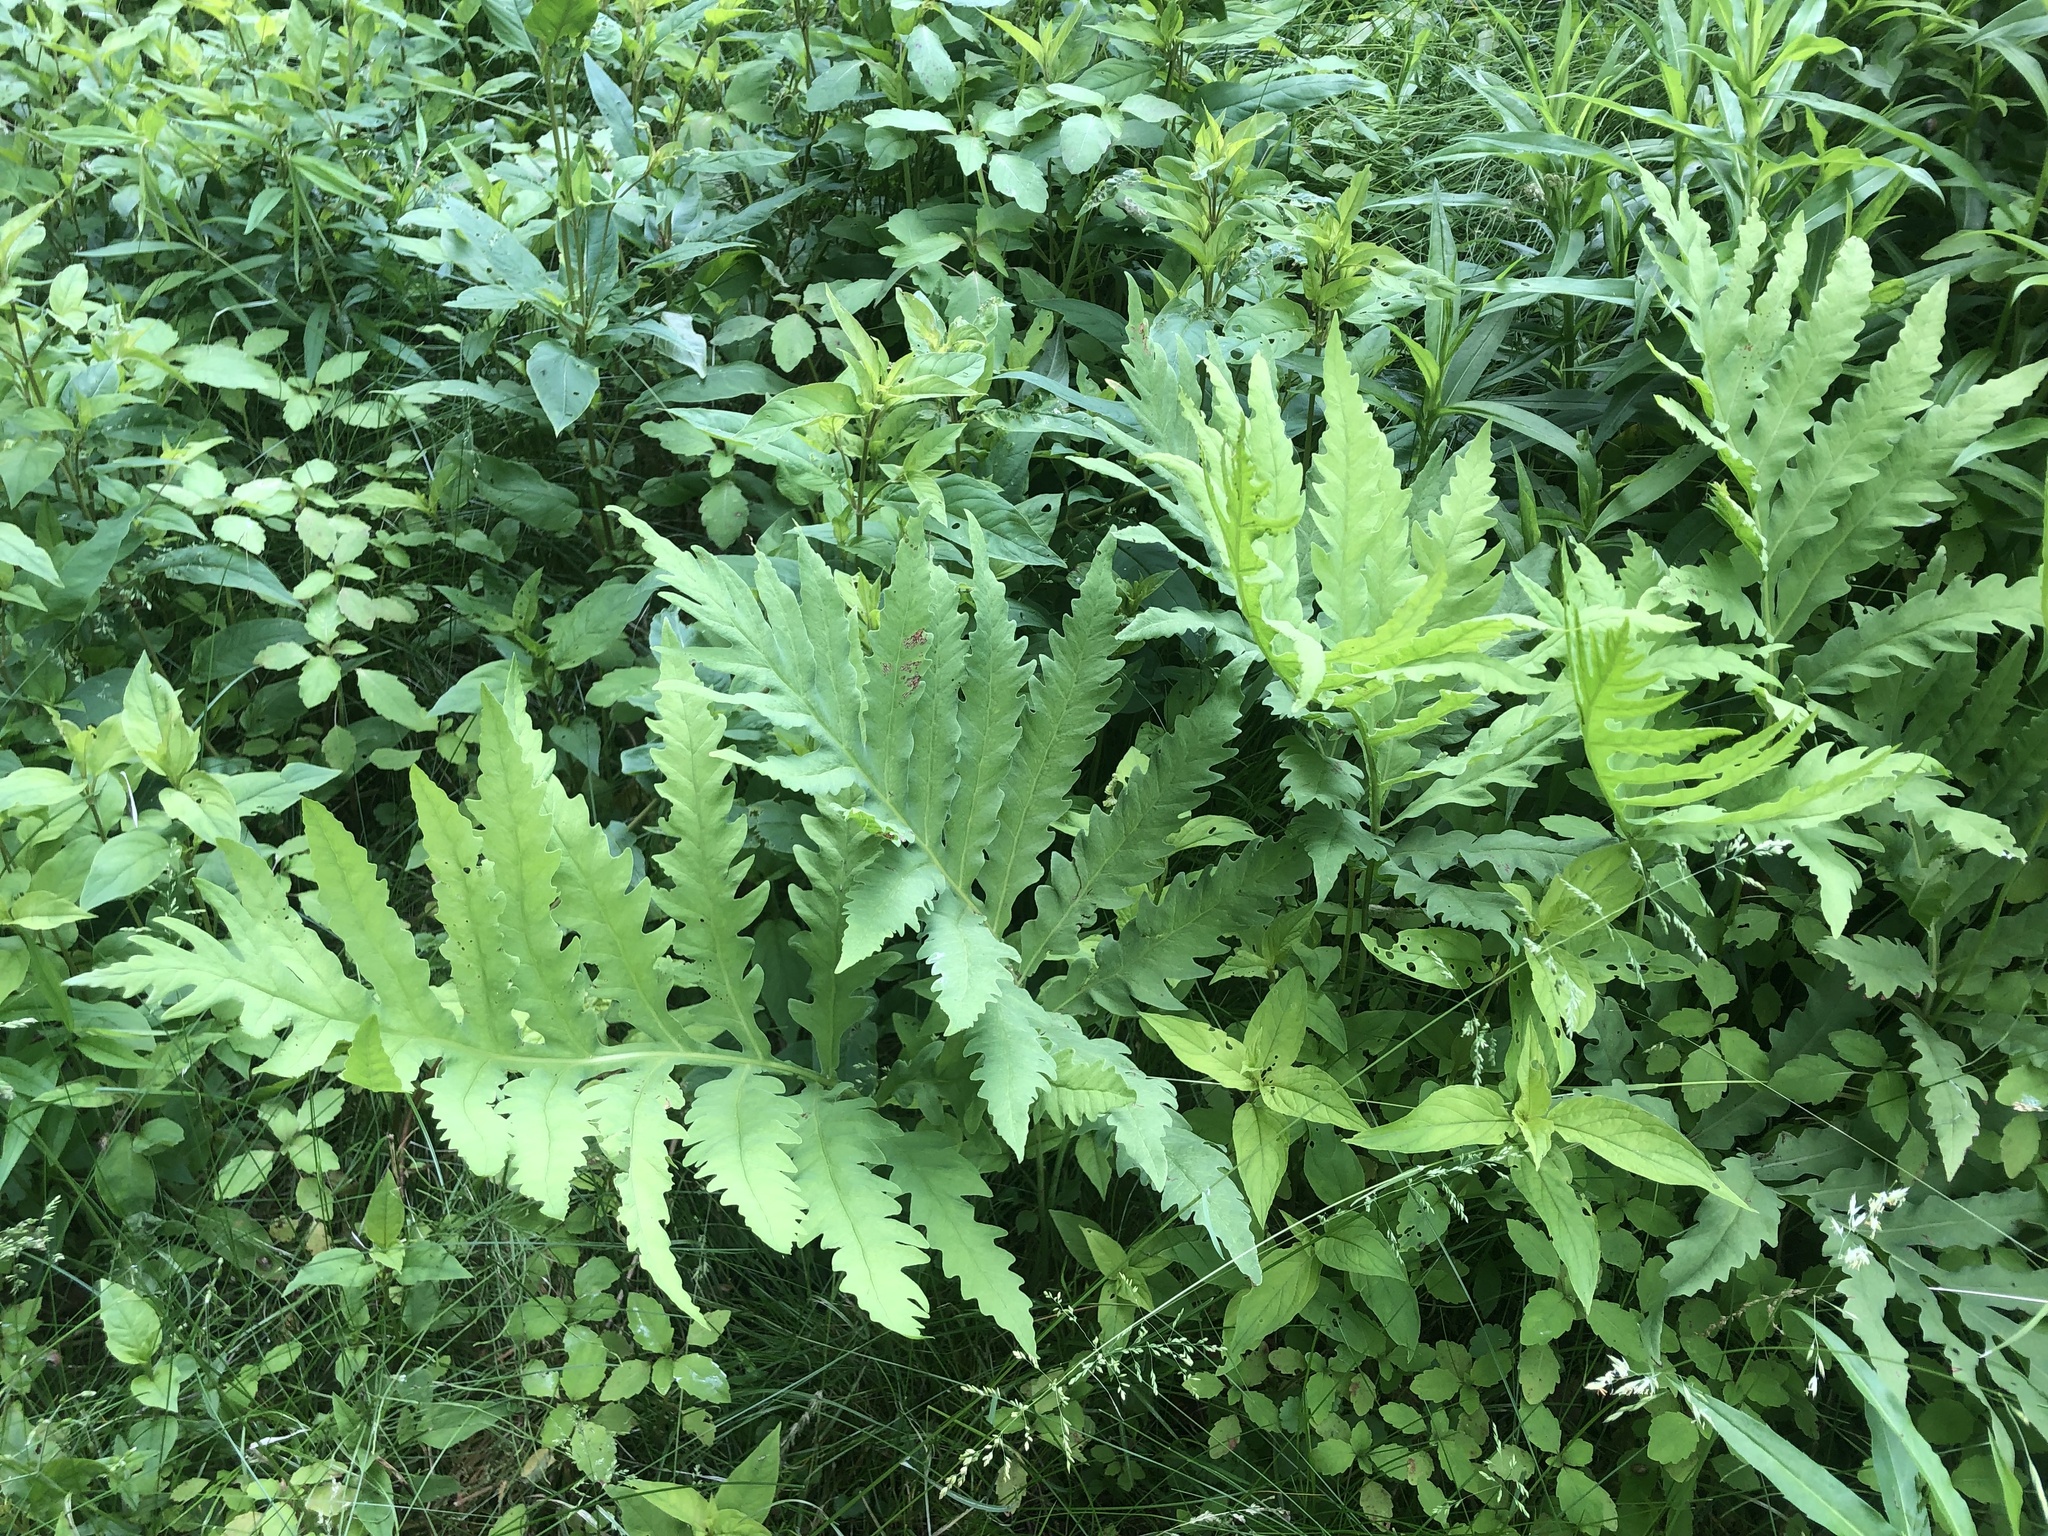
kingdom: Plantae
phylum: Tracheophyta
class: Polypodiopsida
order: Polypodiales
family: Onocleaceae
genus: Onoclea
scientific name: Onoclea sensibilis
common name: Sensitive fern
